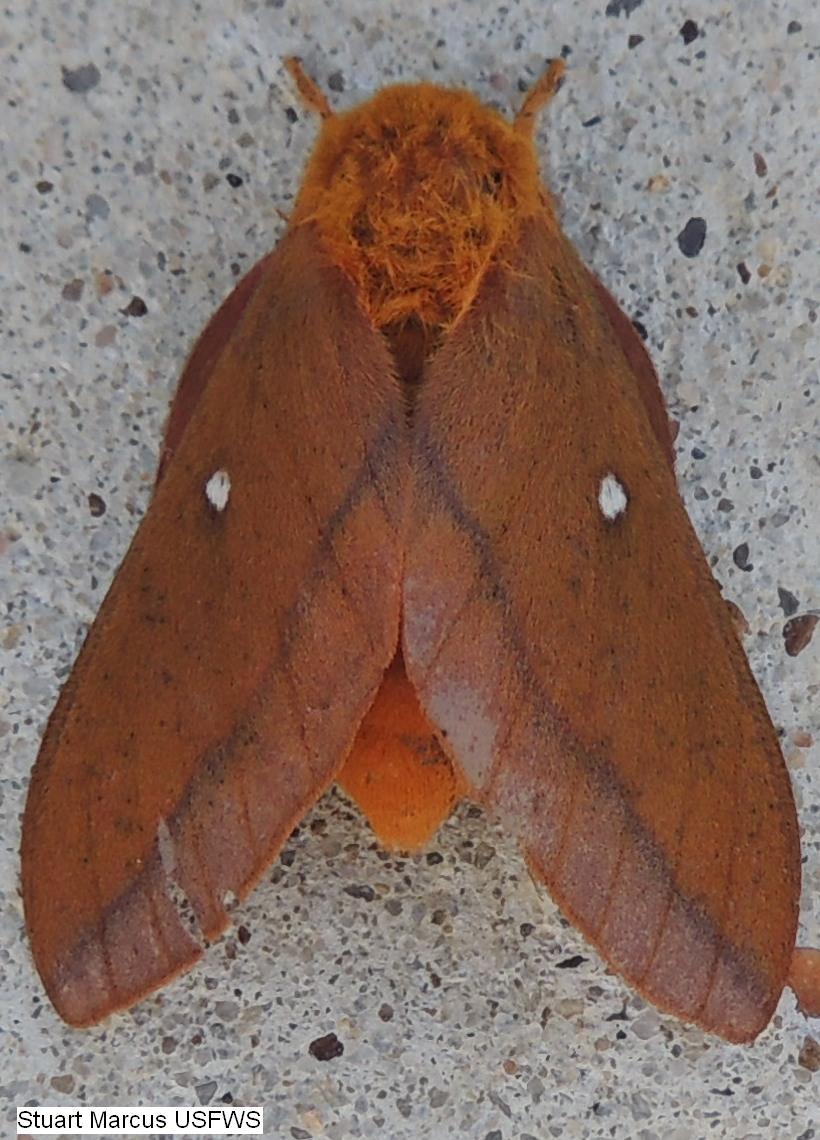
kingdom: Animalia
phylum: Arthropoda
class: Insecta
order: Lepidoptera
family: Saturniidae
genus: Anisota
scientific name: Anisota virginiensis
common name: Pink striped oakworm moth
